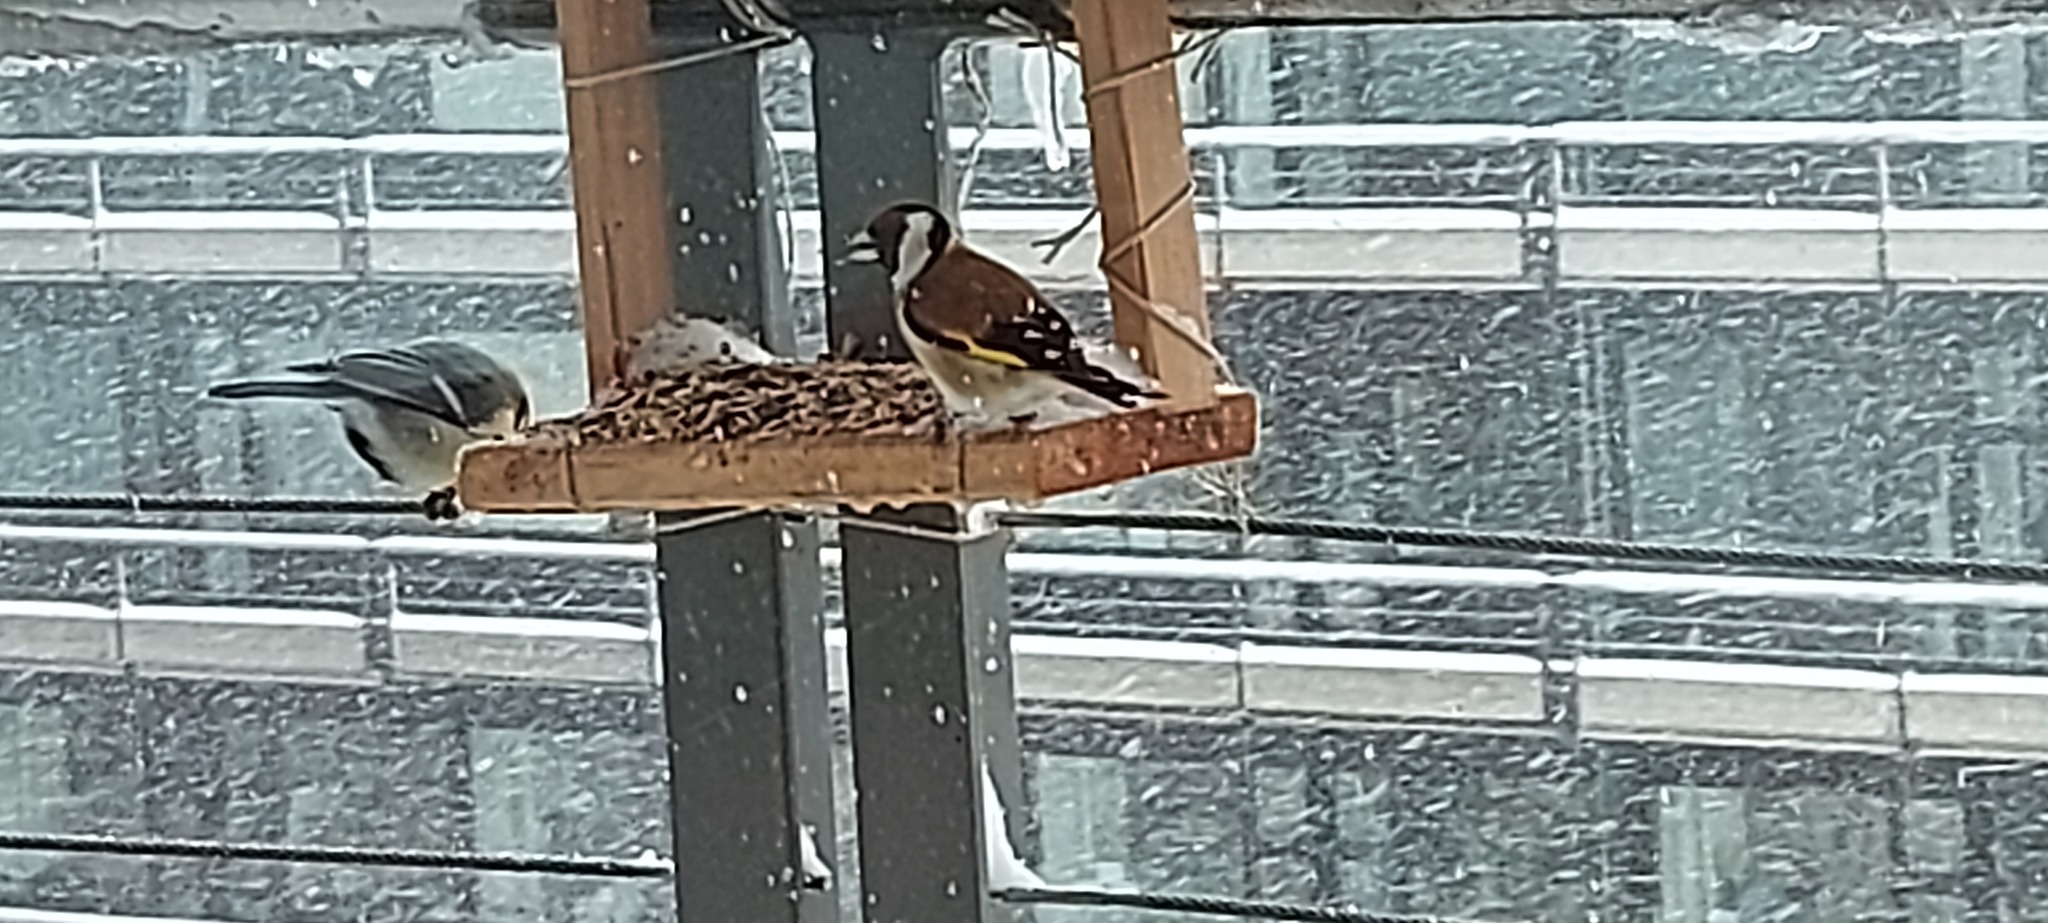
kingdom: Animalia
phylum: Chordata
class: Aves
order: Passeriformes
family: Fringillidae
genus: Carduelis
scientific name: Carduelis carduelis
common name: European goldfinch
